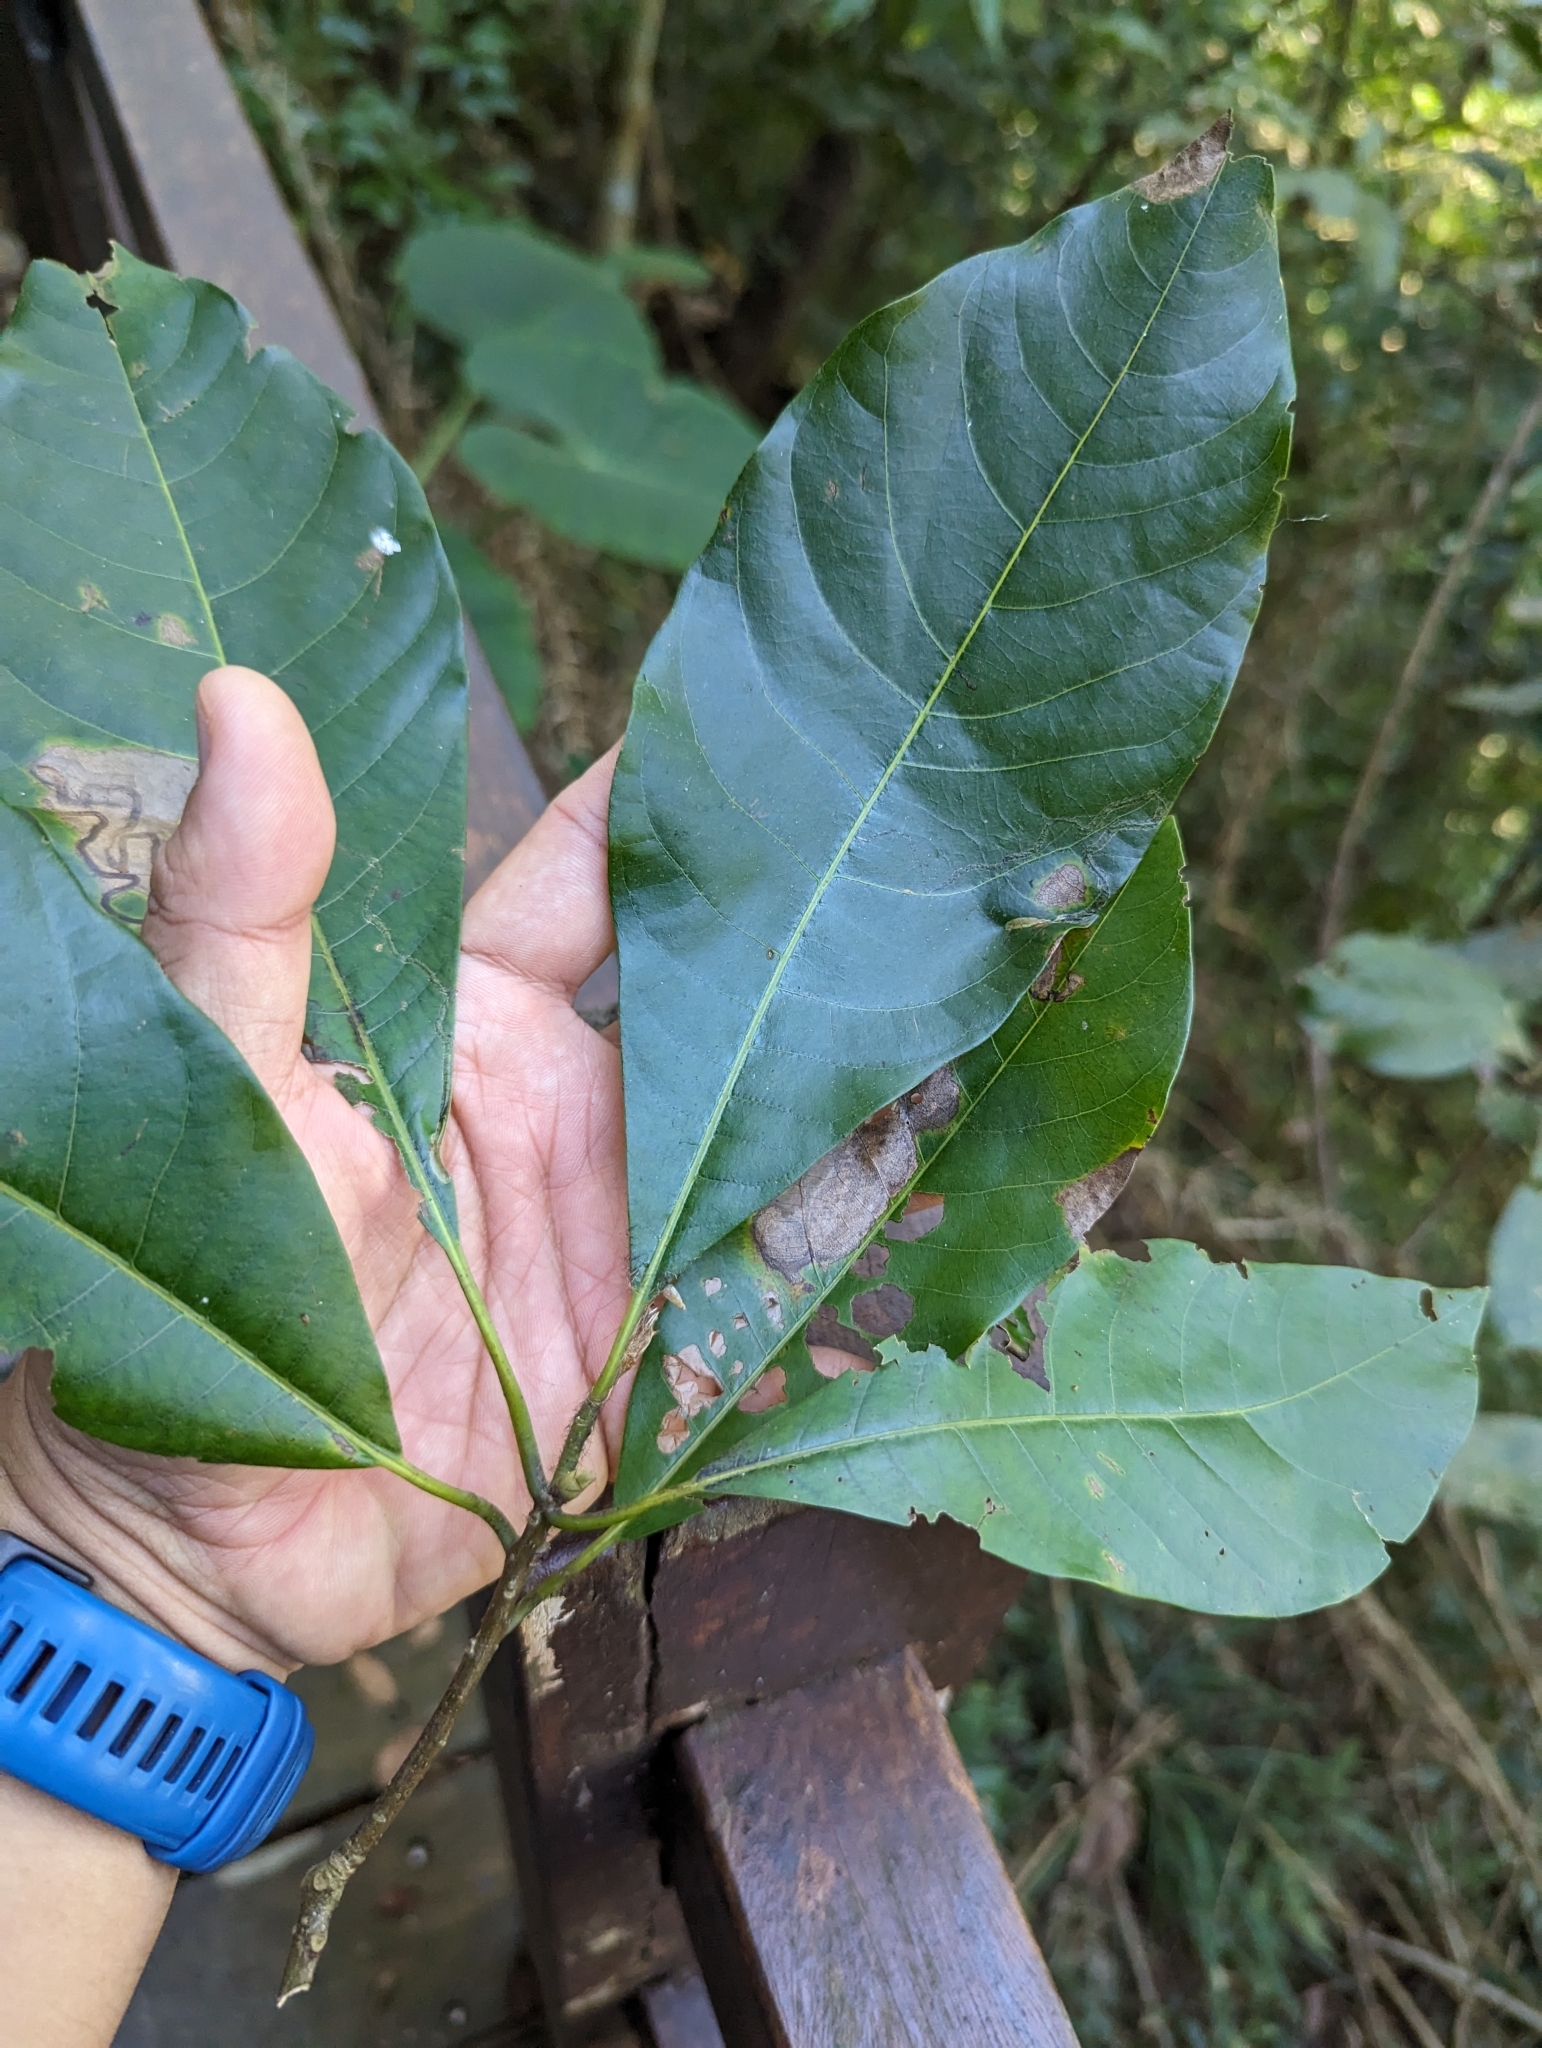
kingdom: Plantae
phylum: Tracheophyta
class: Magnoliopsida
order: Laurales
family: Lauraceae
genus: Lindera
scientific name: Lindera megaphylla
